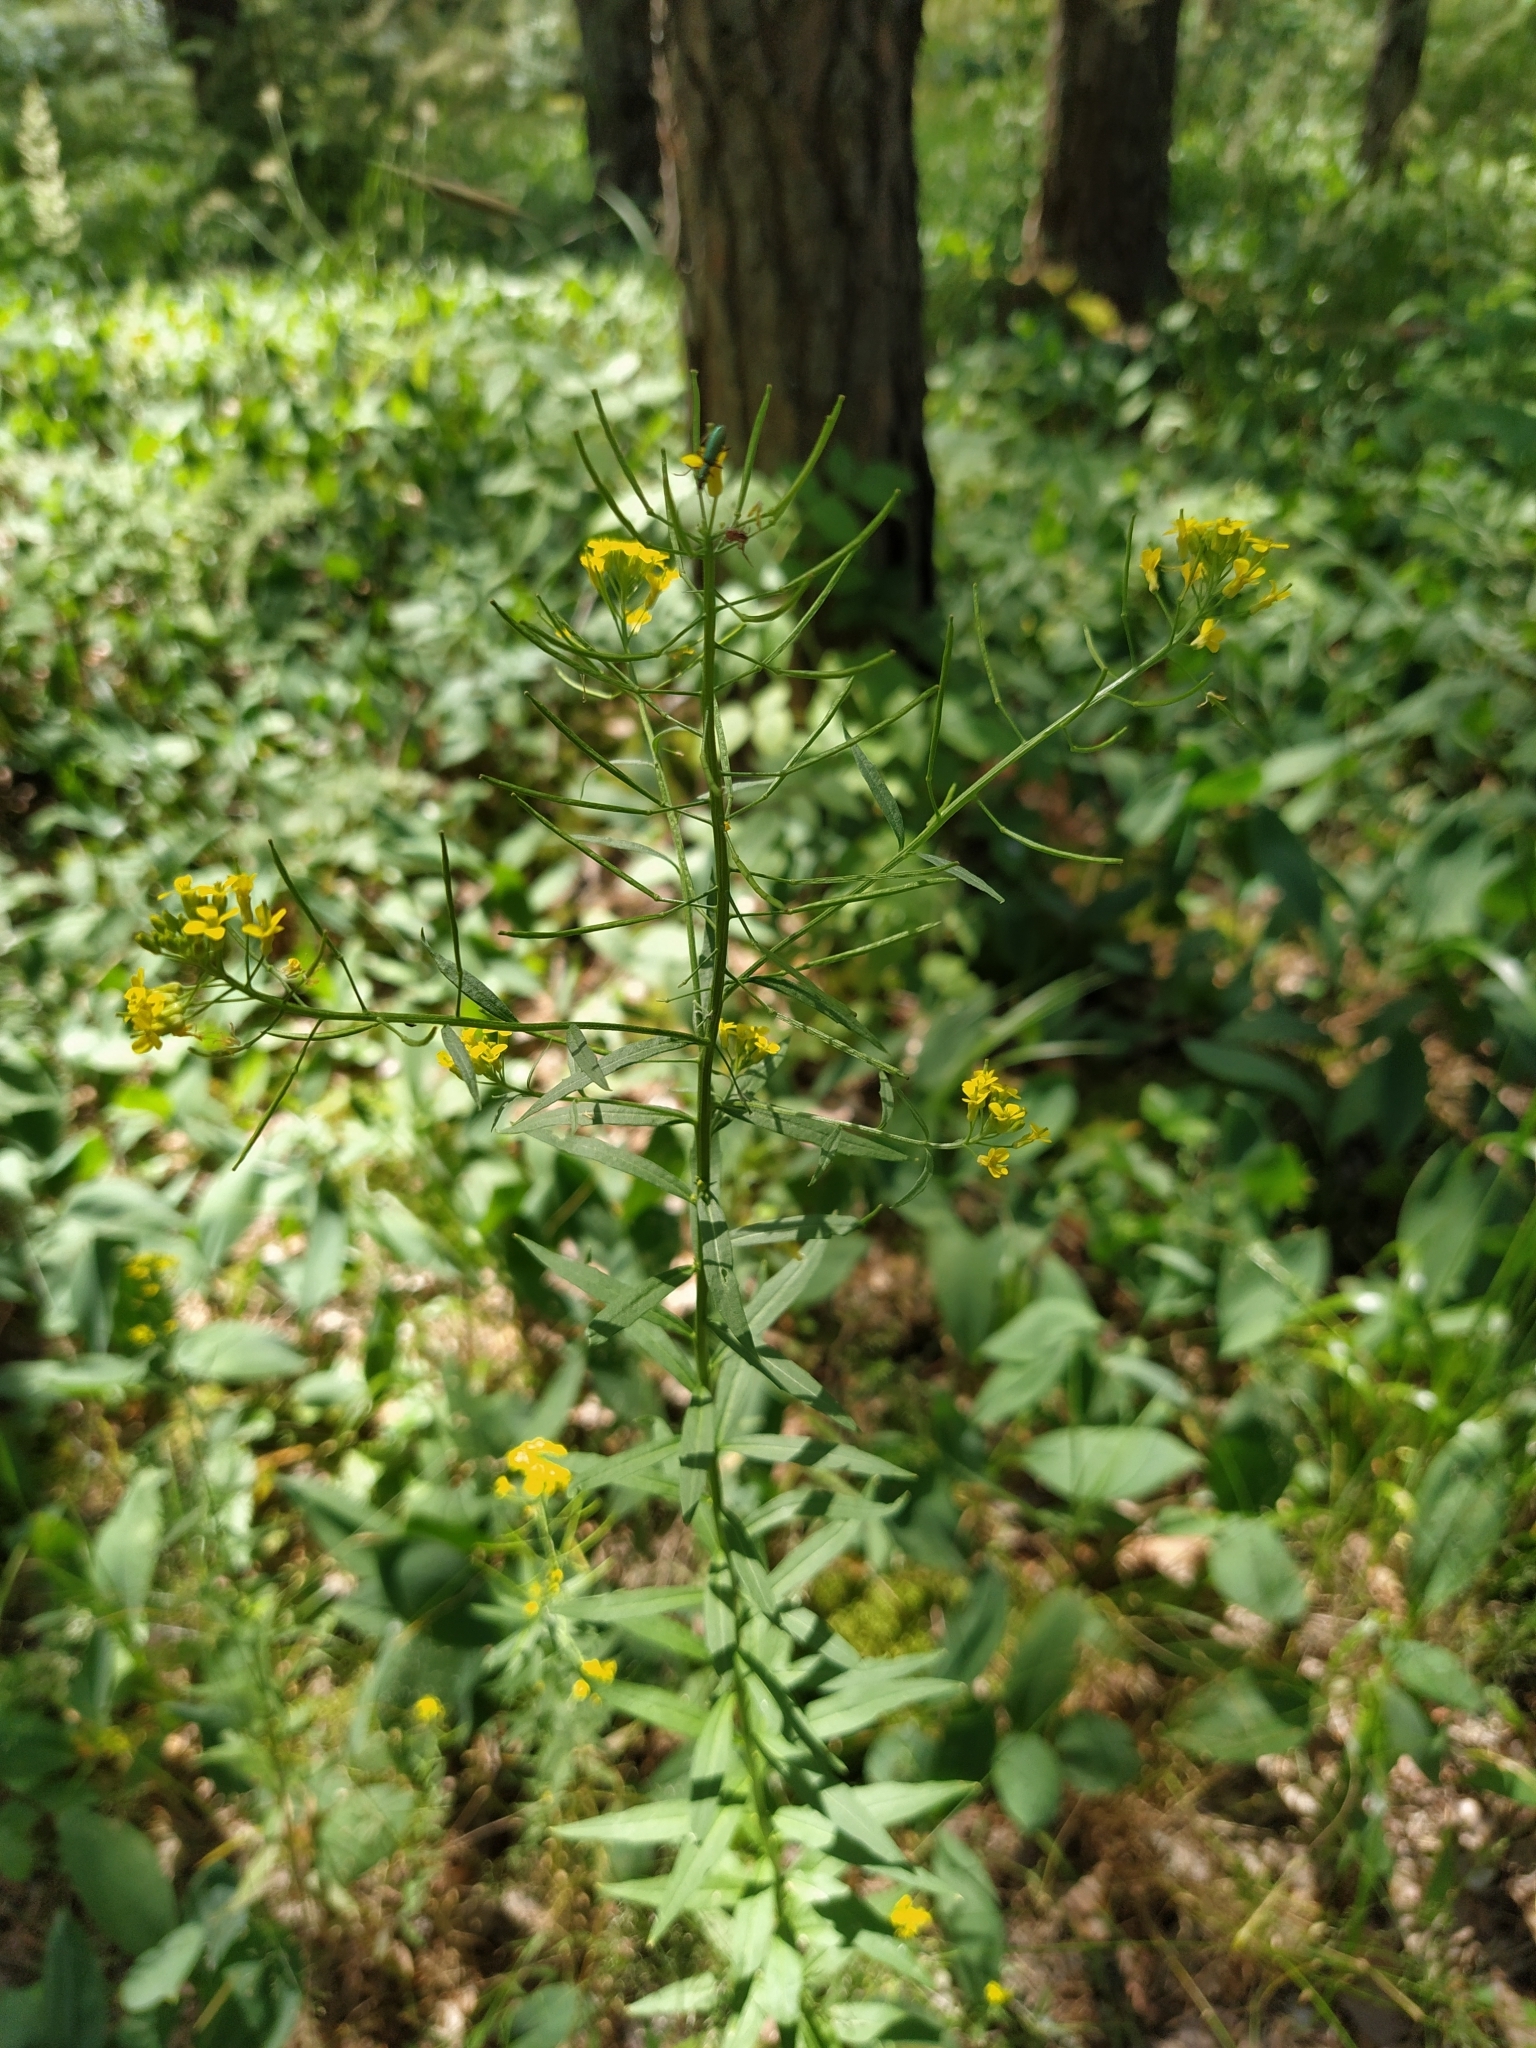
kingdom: Plantae
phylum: Tracheophyta
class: Magnoliopsida
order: Brassicales
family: Brassicaceae
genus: Erysimum
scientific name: Erysimum cheiranthoides
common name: Treacle mustard
